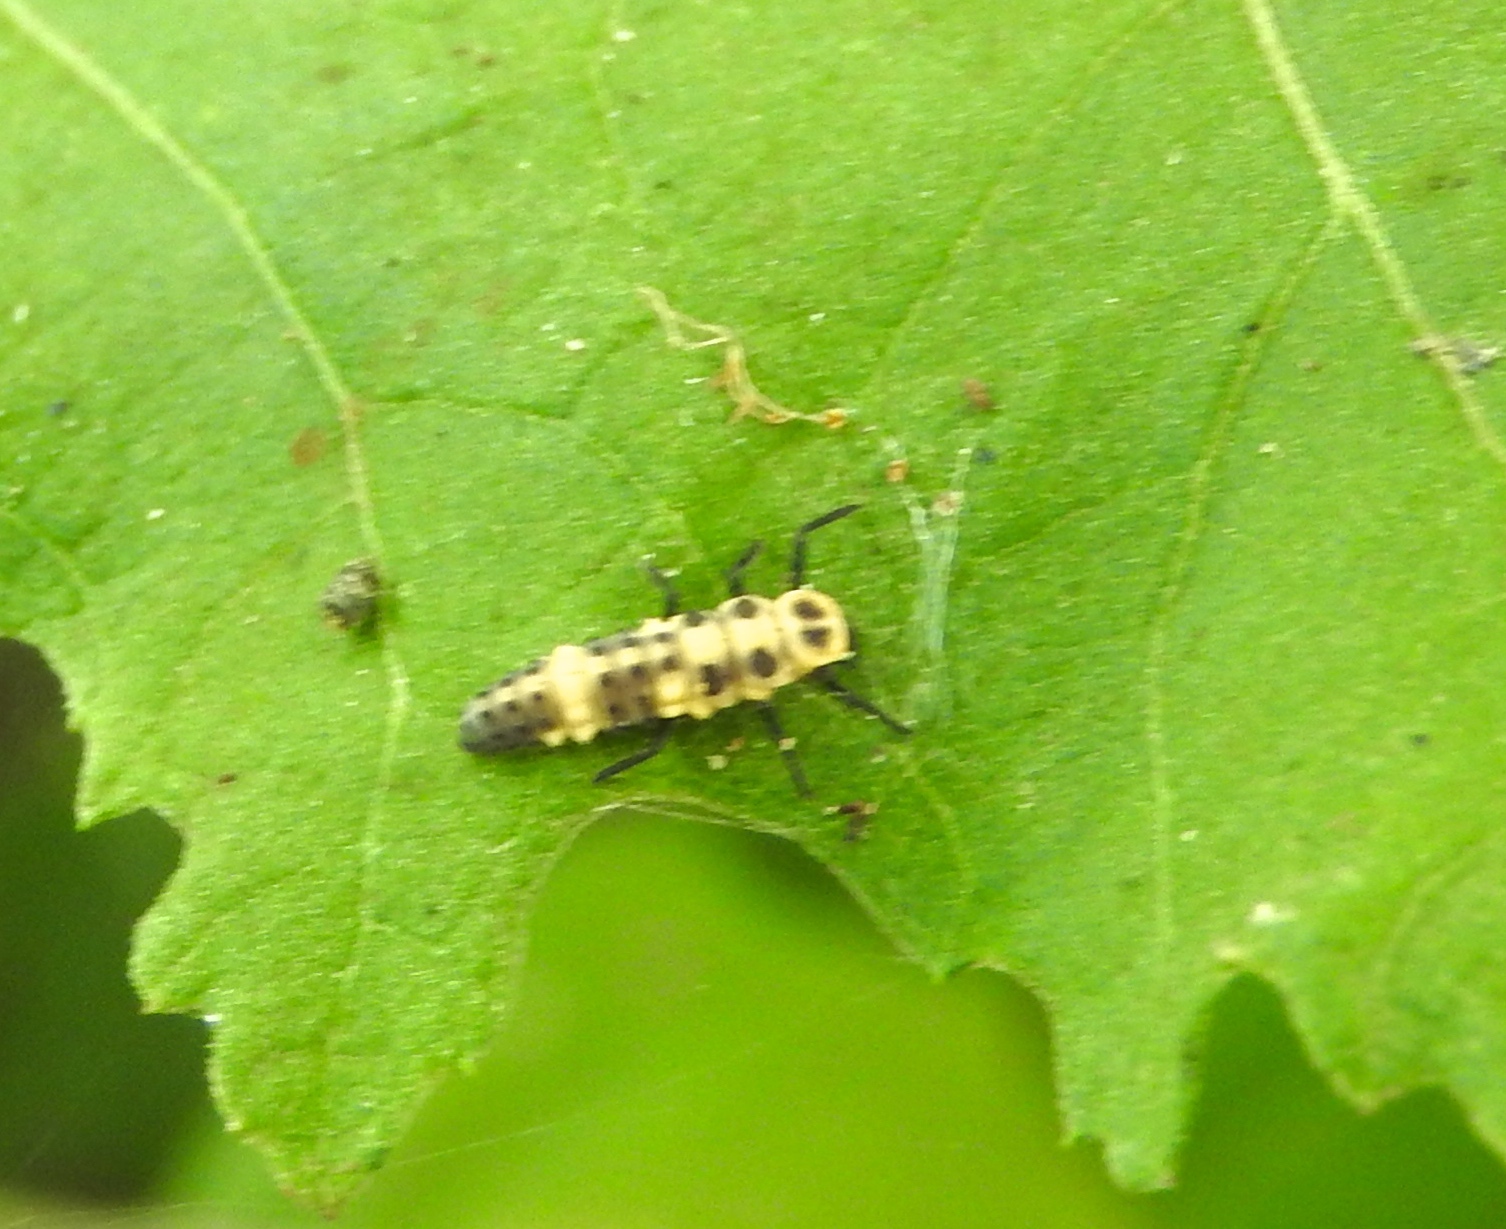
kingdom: Animalia
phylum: Arthropoda
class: Insecta
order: Coleoptera
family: Coccinellidae
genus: Coccinellina
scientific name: Coccinellina
